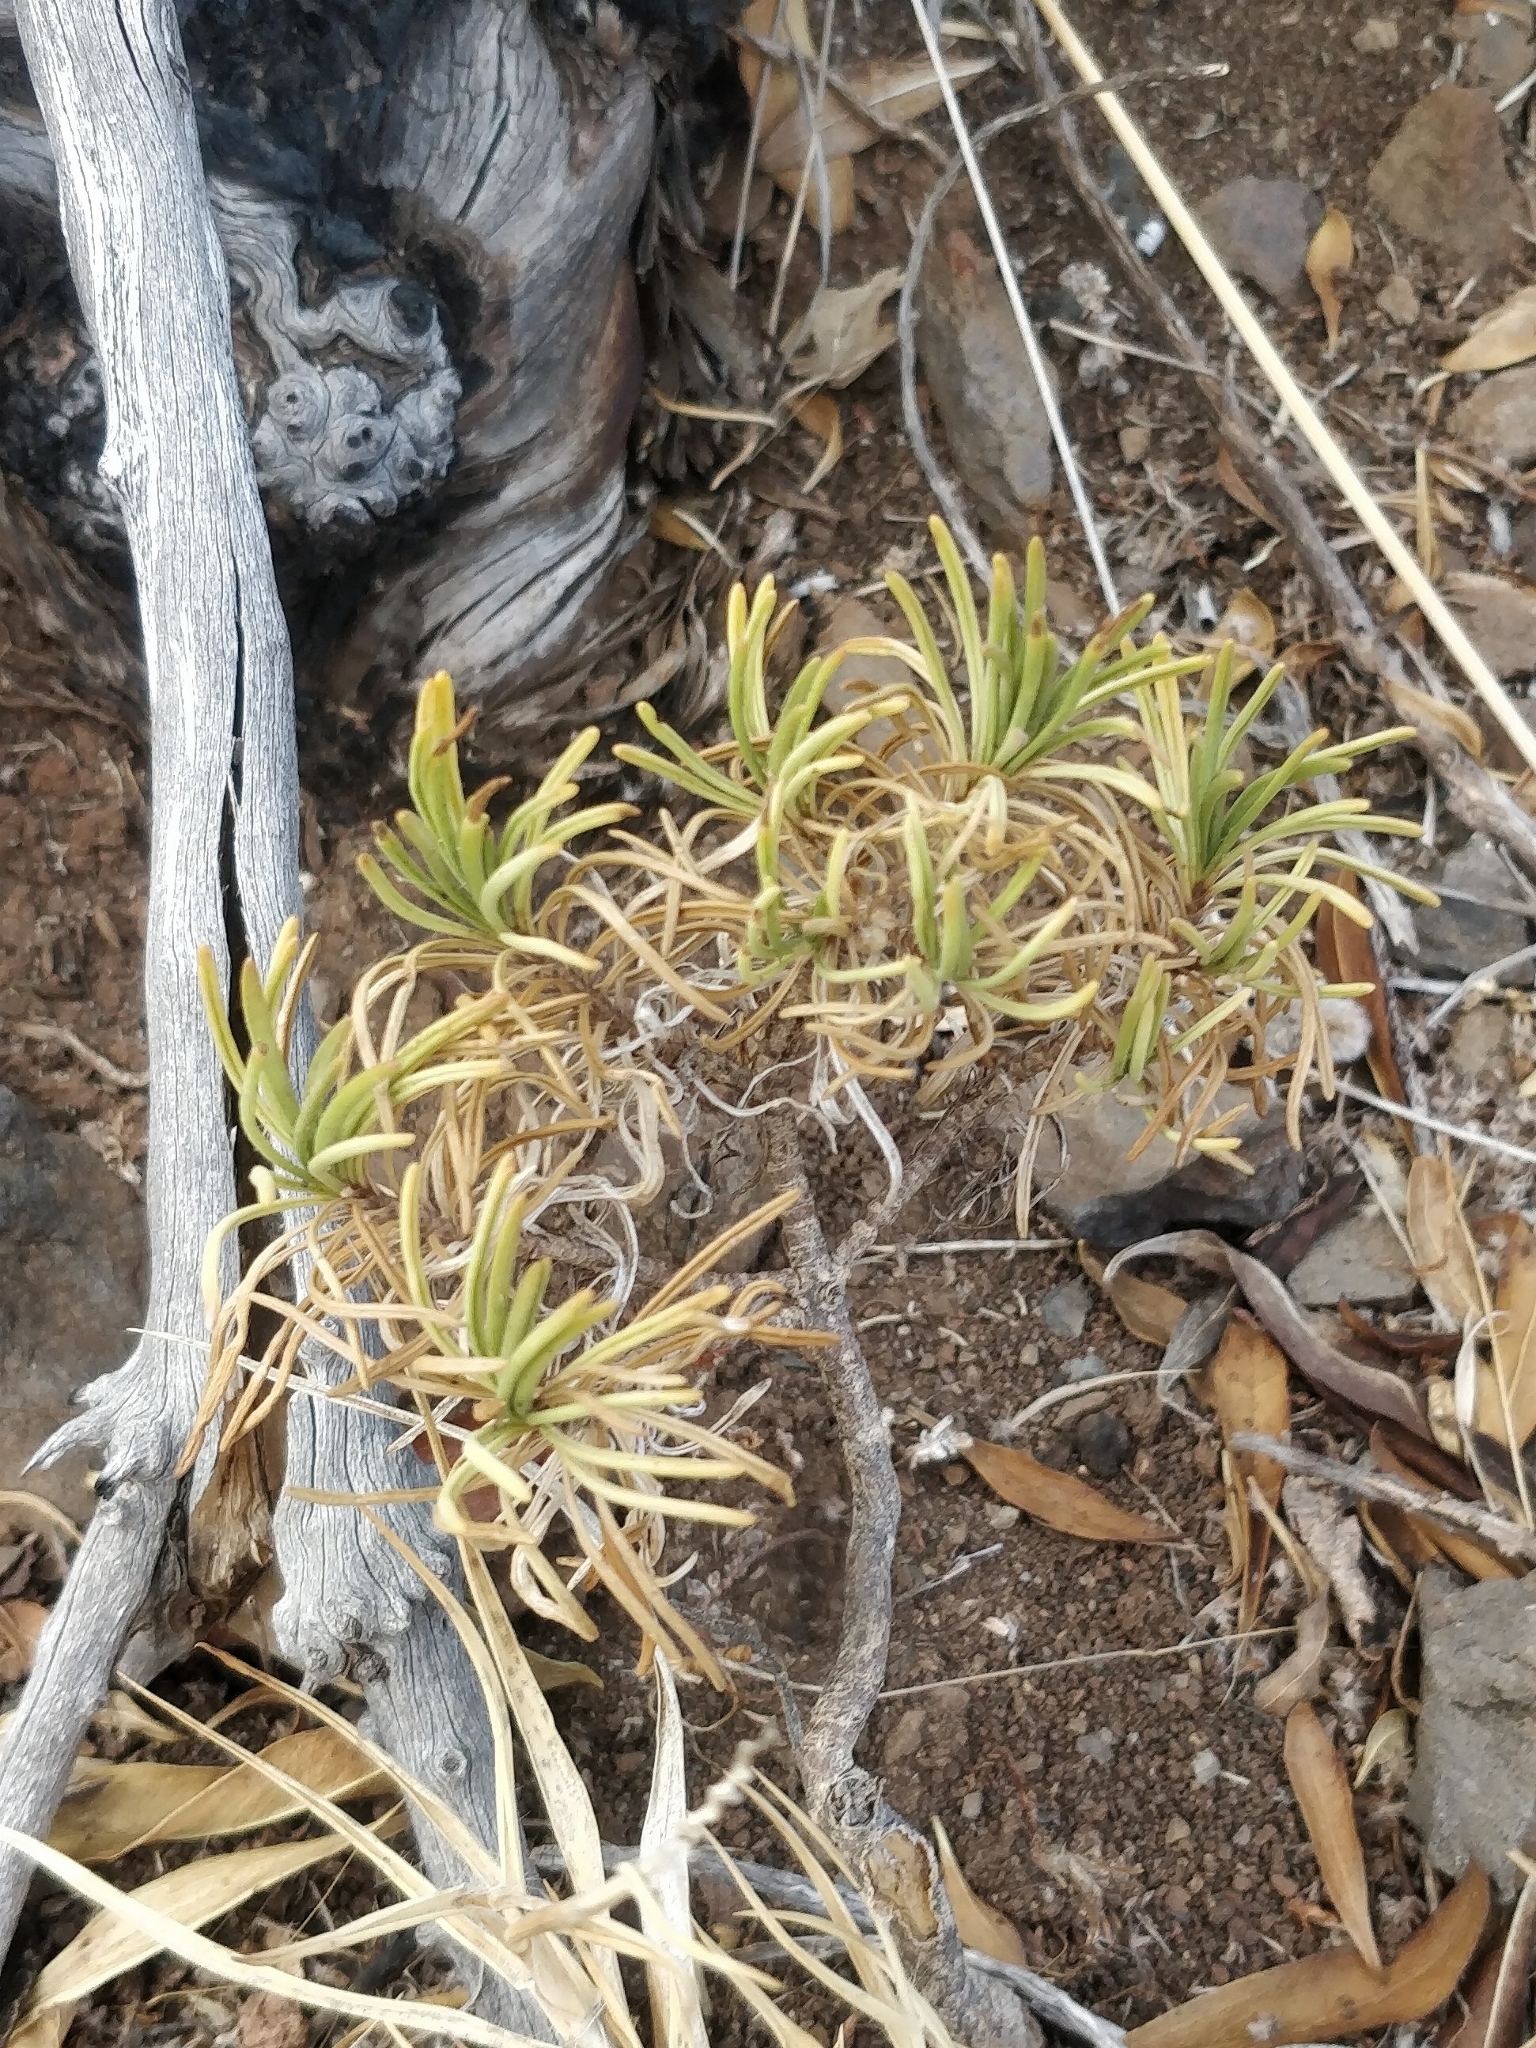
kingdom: Plantae
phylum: Tracheophyta
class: Magnoliopsida
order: Lamiales
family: Plantaginaceae
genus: Plantago
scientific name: Plantago arborescens
